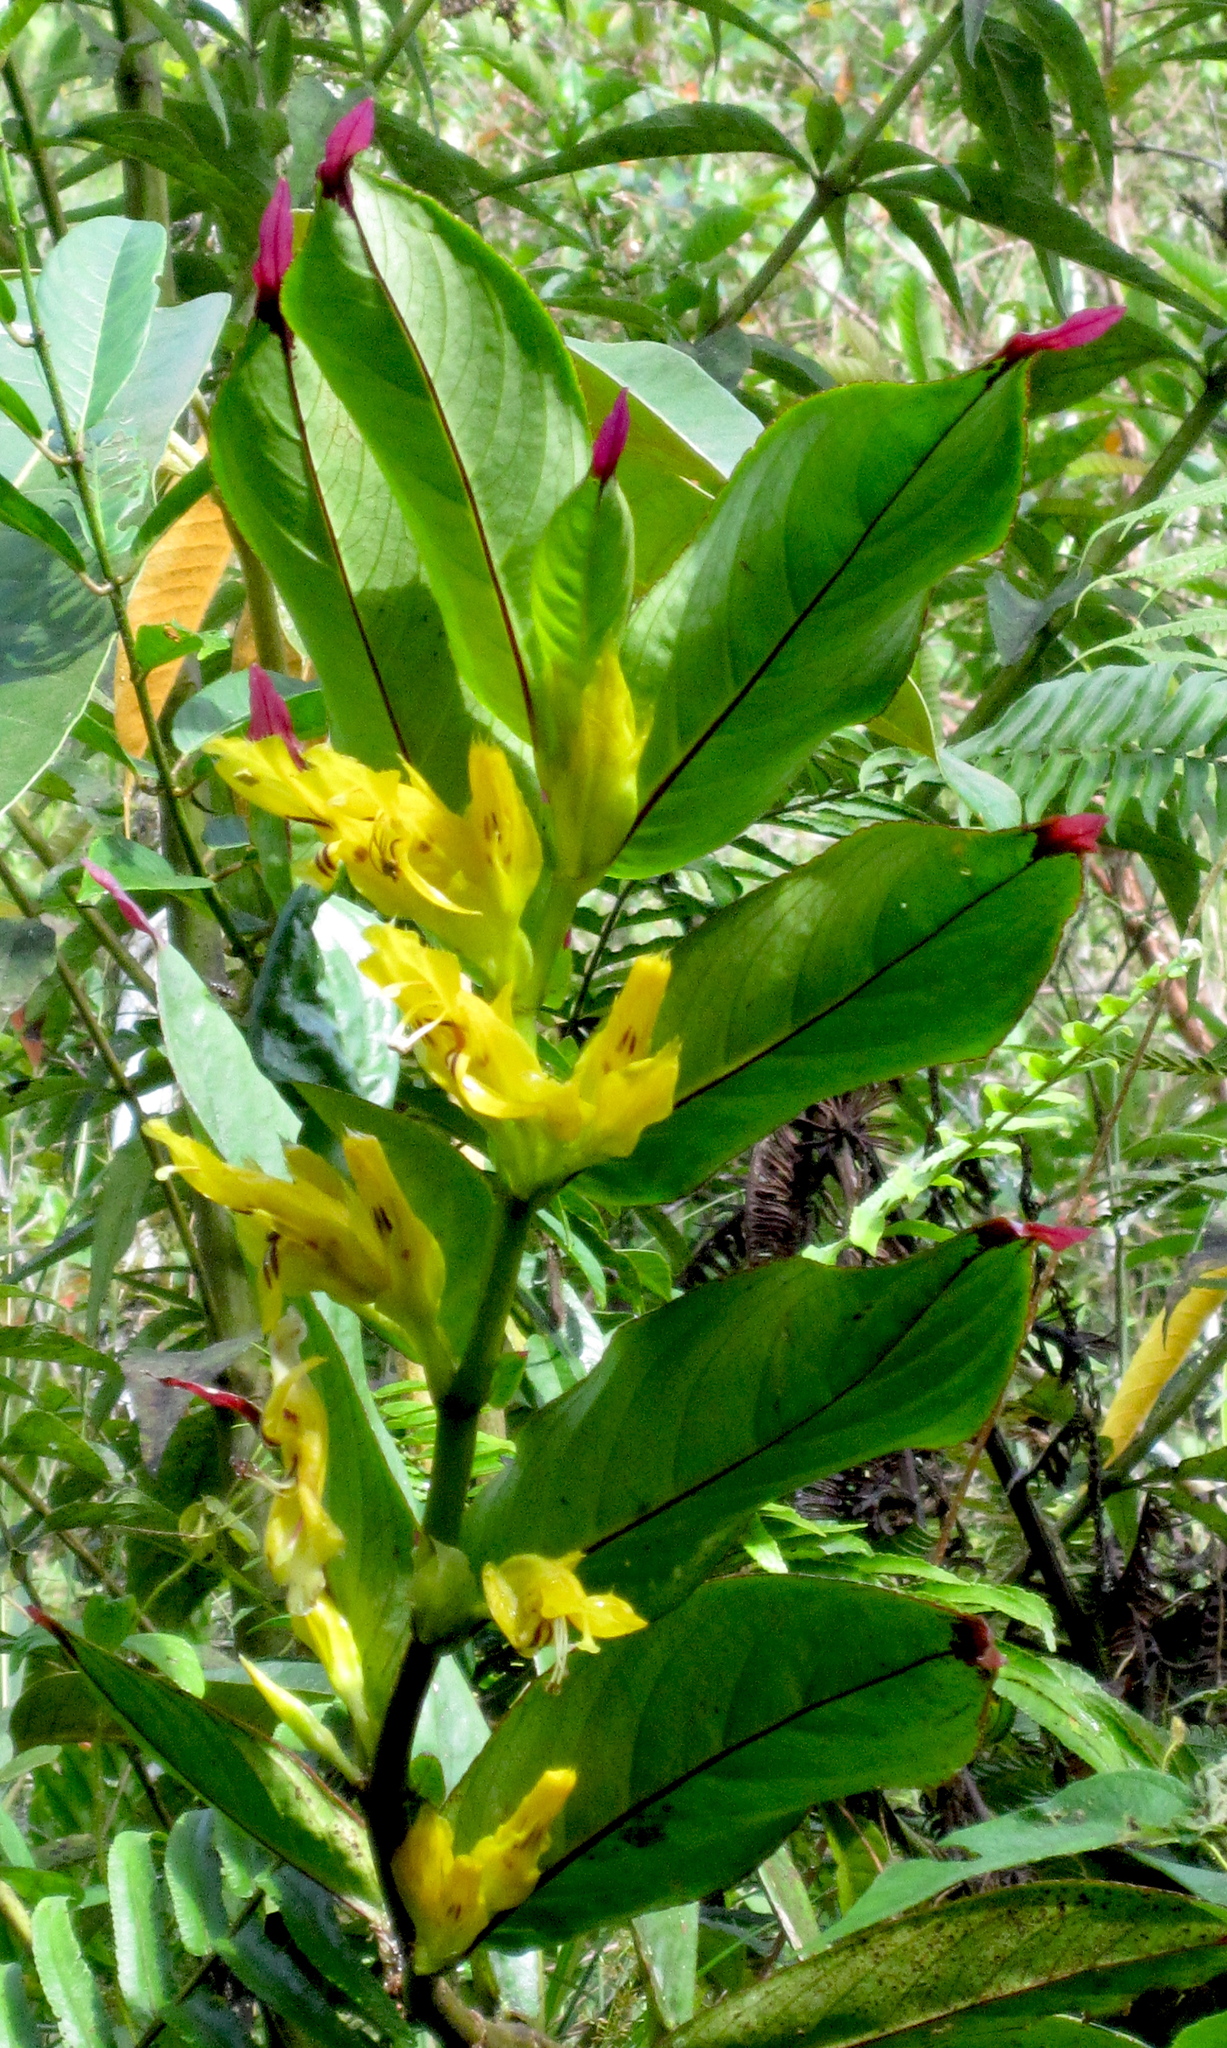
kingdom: Plantae
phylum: Tracheophyta
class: Magnoliopsida
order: Lamiales
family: Gesneriaceae
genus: Columnea
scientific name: Columnea ericae
